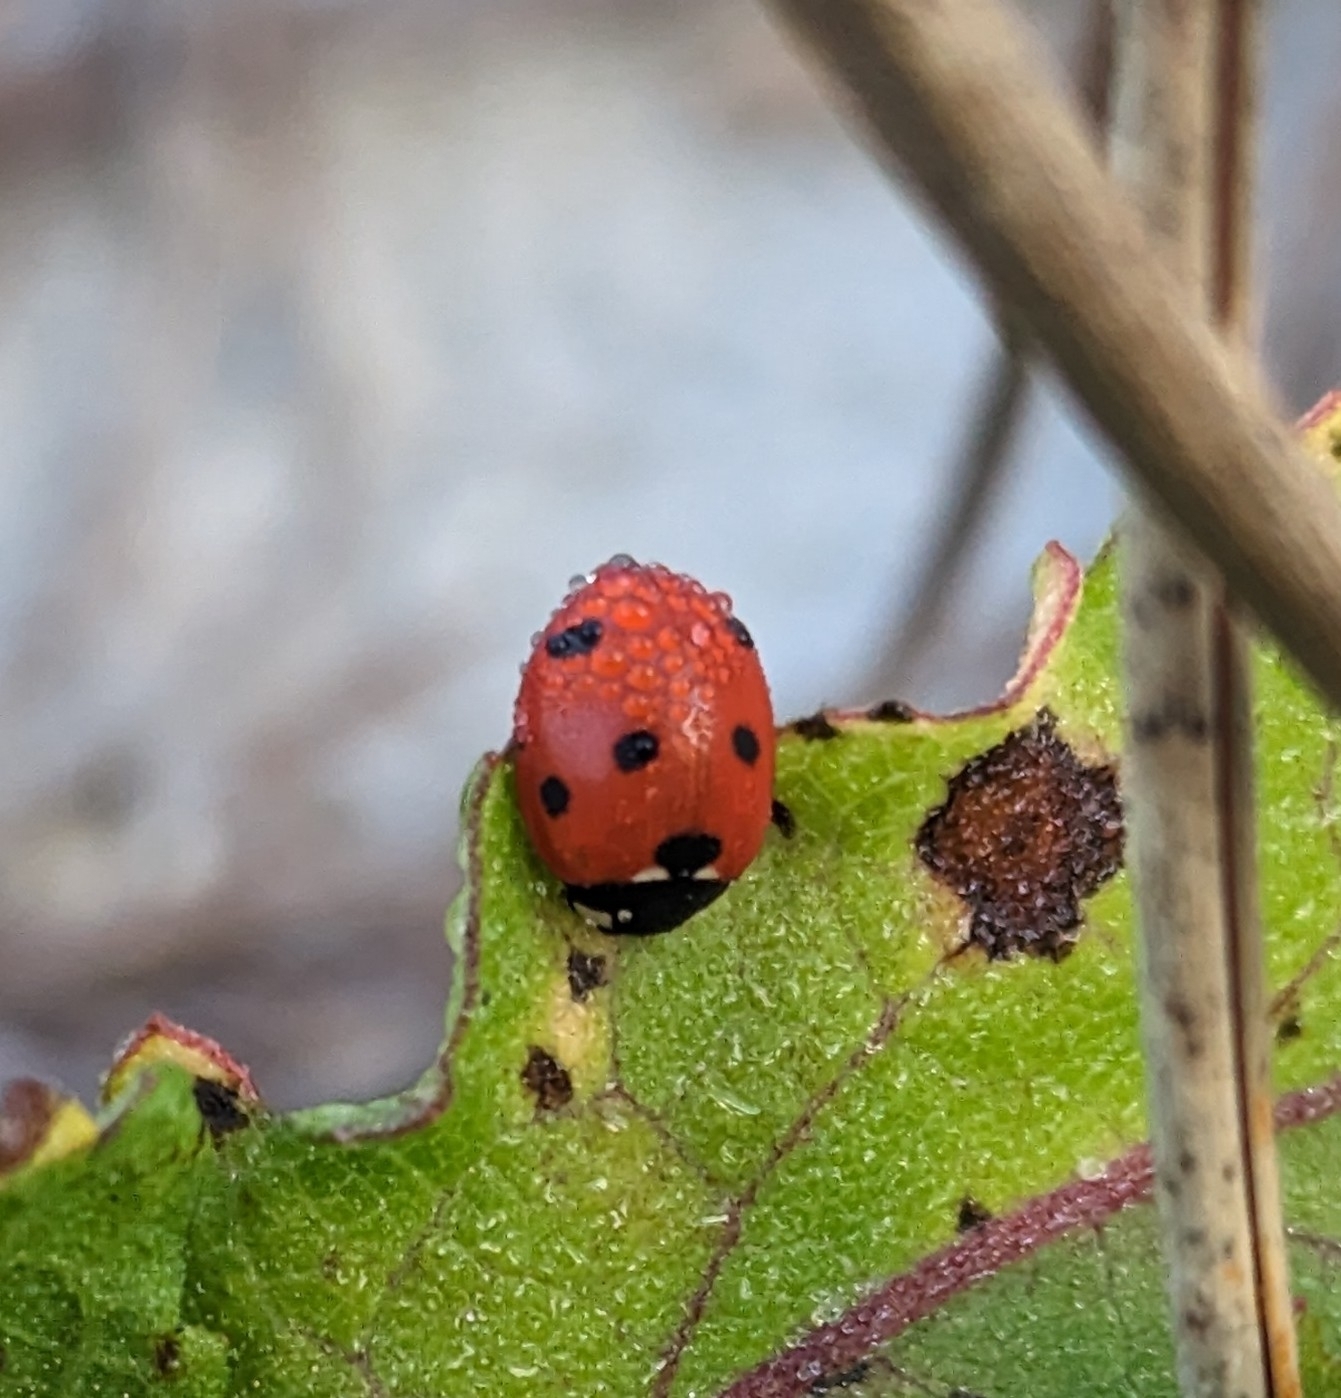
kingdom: Animalia
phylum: Arthropoda
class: Insecta
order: Coleoptera
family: Coccinellidae
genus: Coccinella
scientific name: Coccinella septempunctata
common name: Sevenspotted lady beetle
